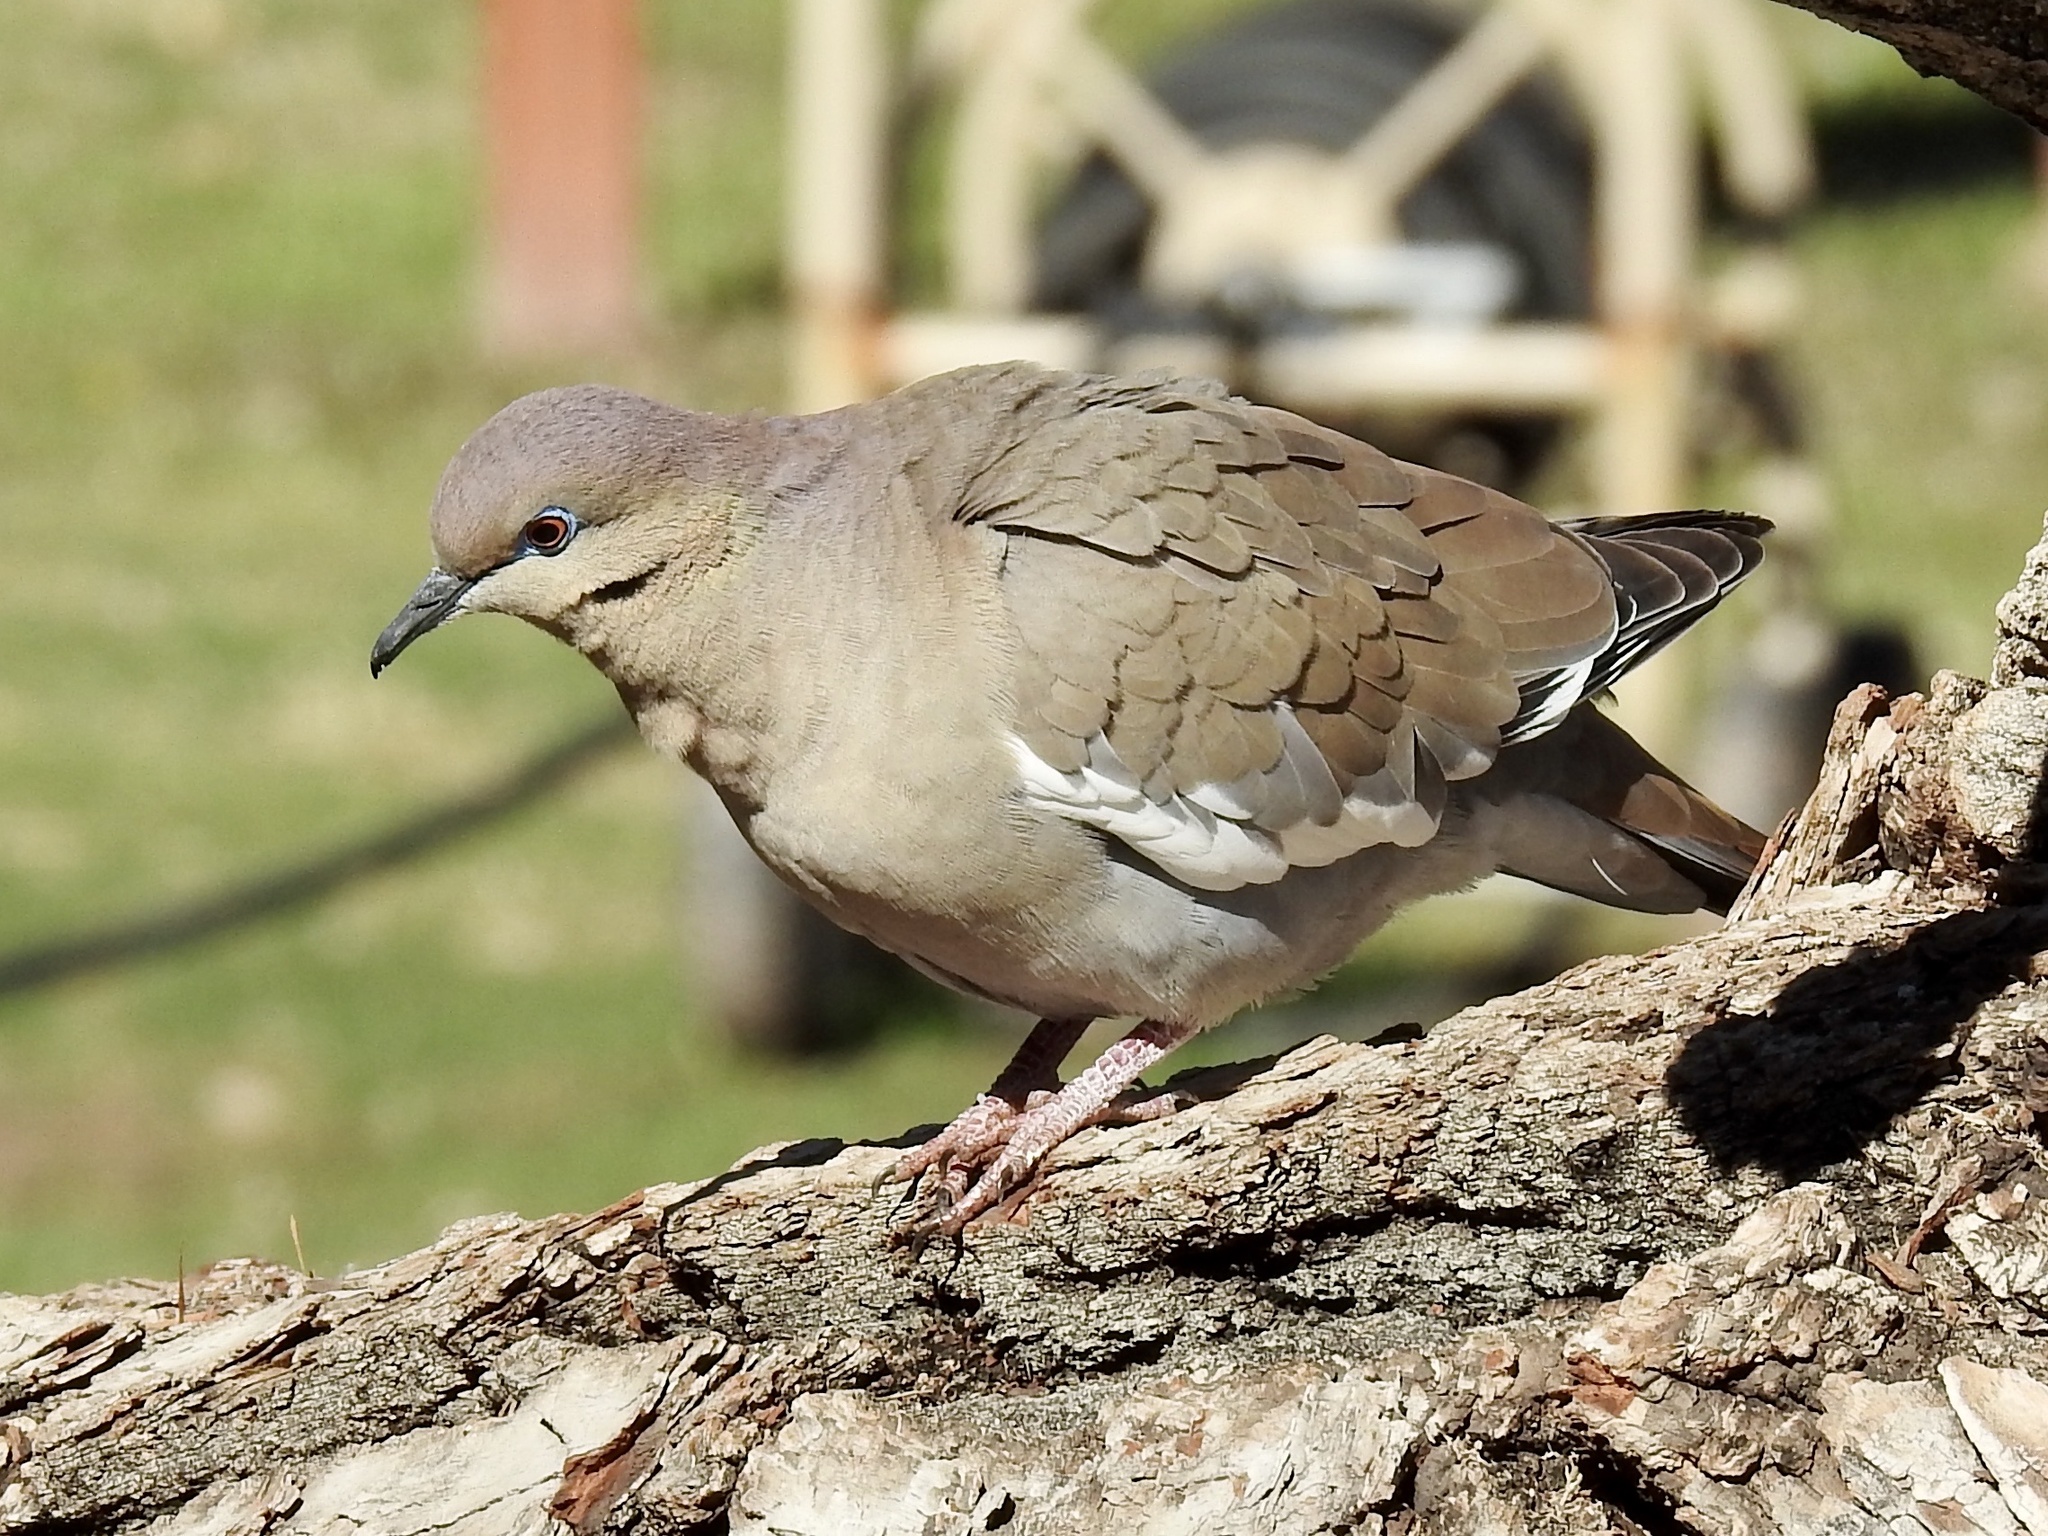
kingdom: Animalia
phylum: Chordata
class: Aves
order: Columbiformes
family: Columbidae
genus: Zenaida
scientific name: Zenaida asiatica
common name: White-winged dove
